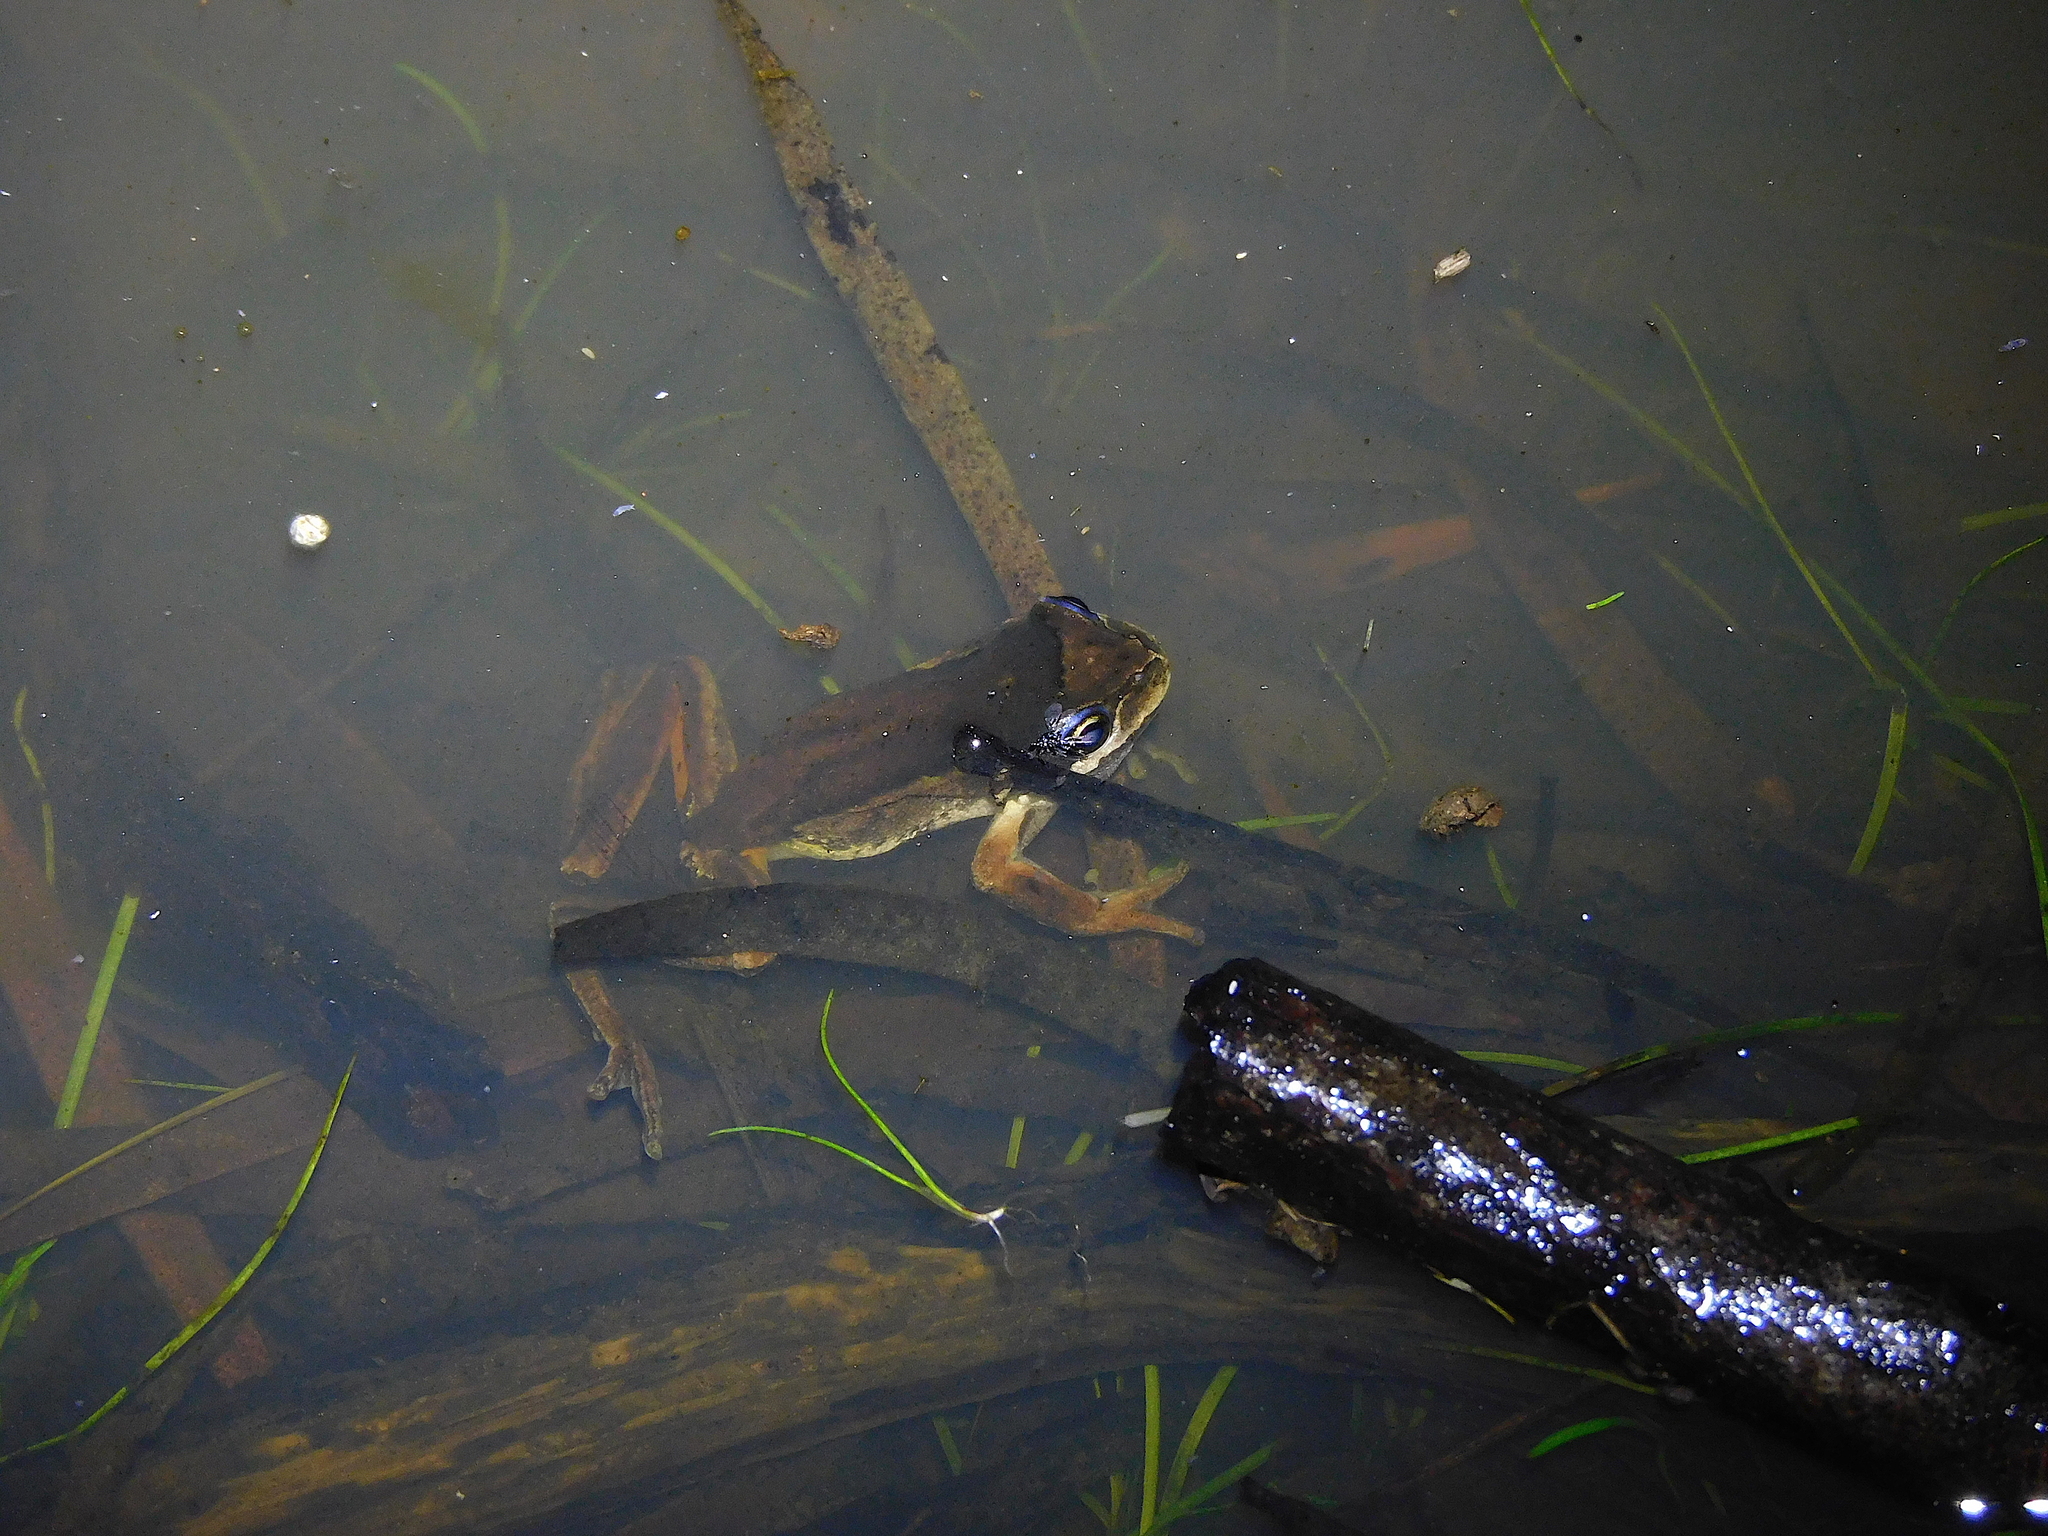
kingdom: Animalia
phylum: Chordata
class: Amphibia
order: Anura
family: Pelodryadidae
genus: Litoria
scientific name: Litoria ewingii
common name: Southern brown tree frog
